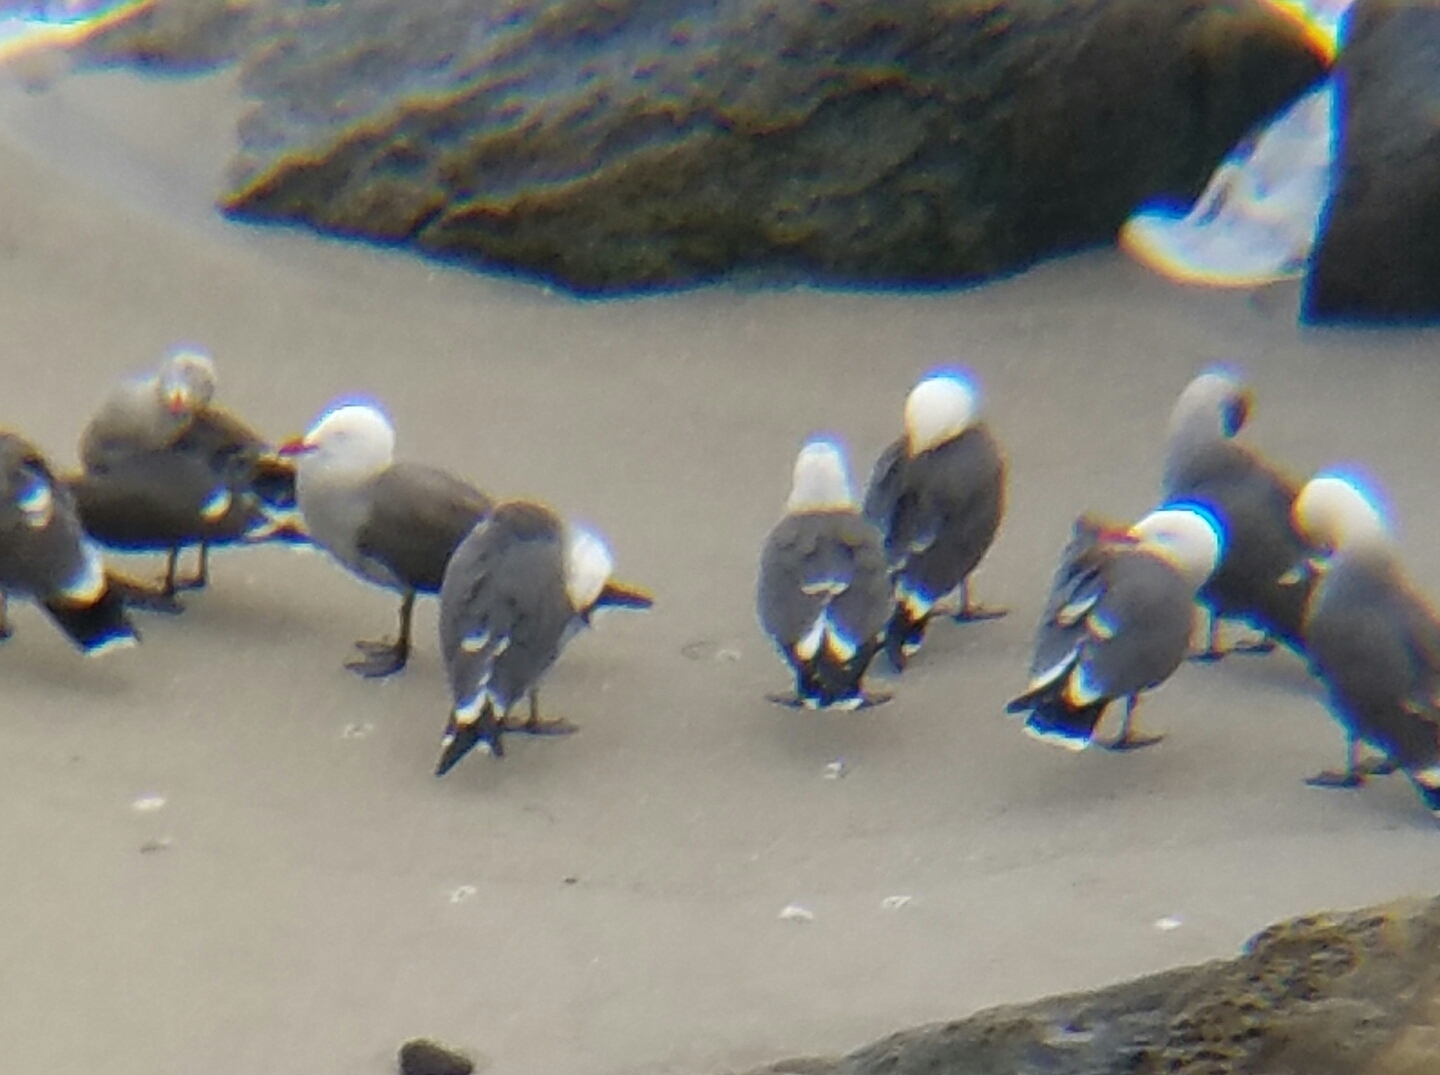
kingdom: Animalia
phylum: Chordata
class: Aves
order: Charadriiformes
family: Laridae
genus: Larus
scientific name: Larus heermanni
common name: Heermann's gull
